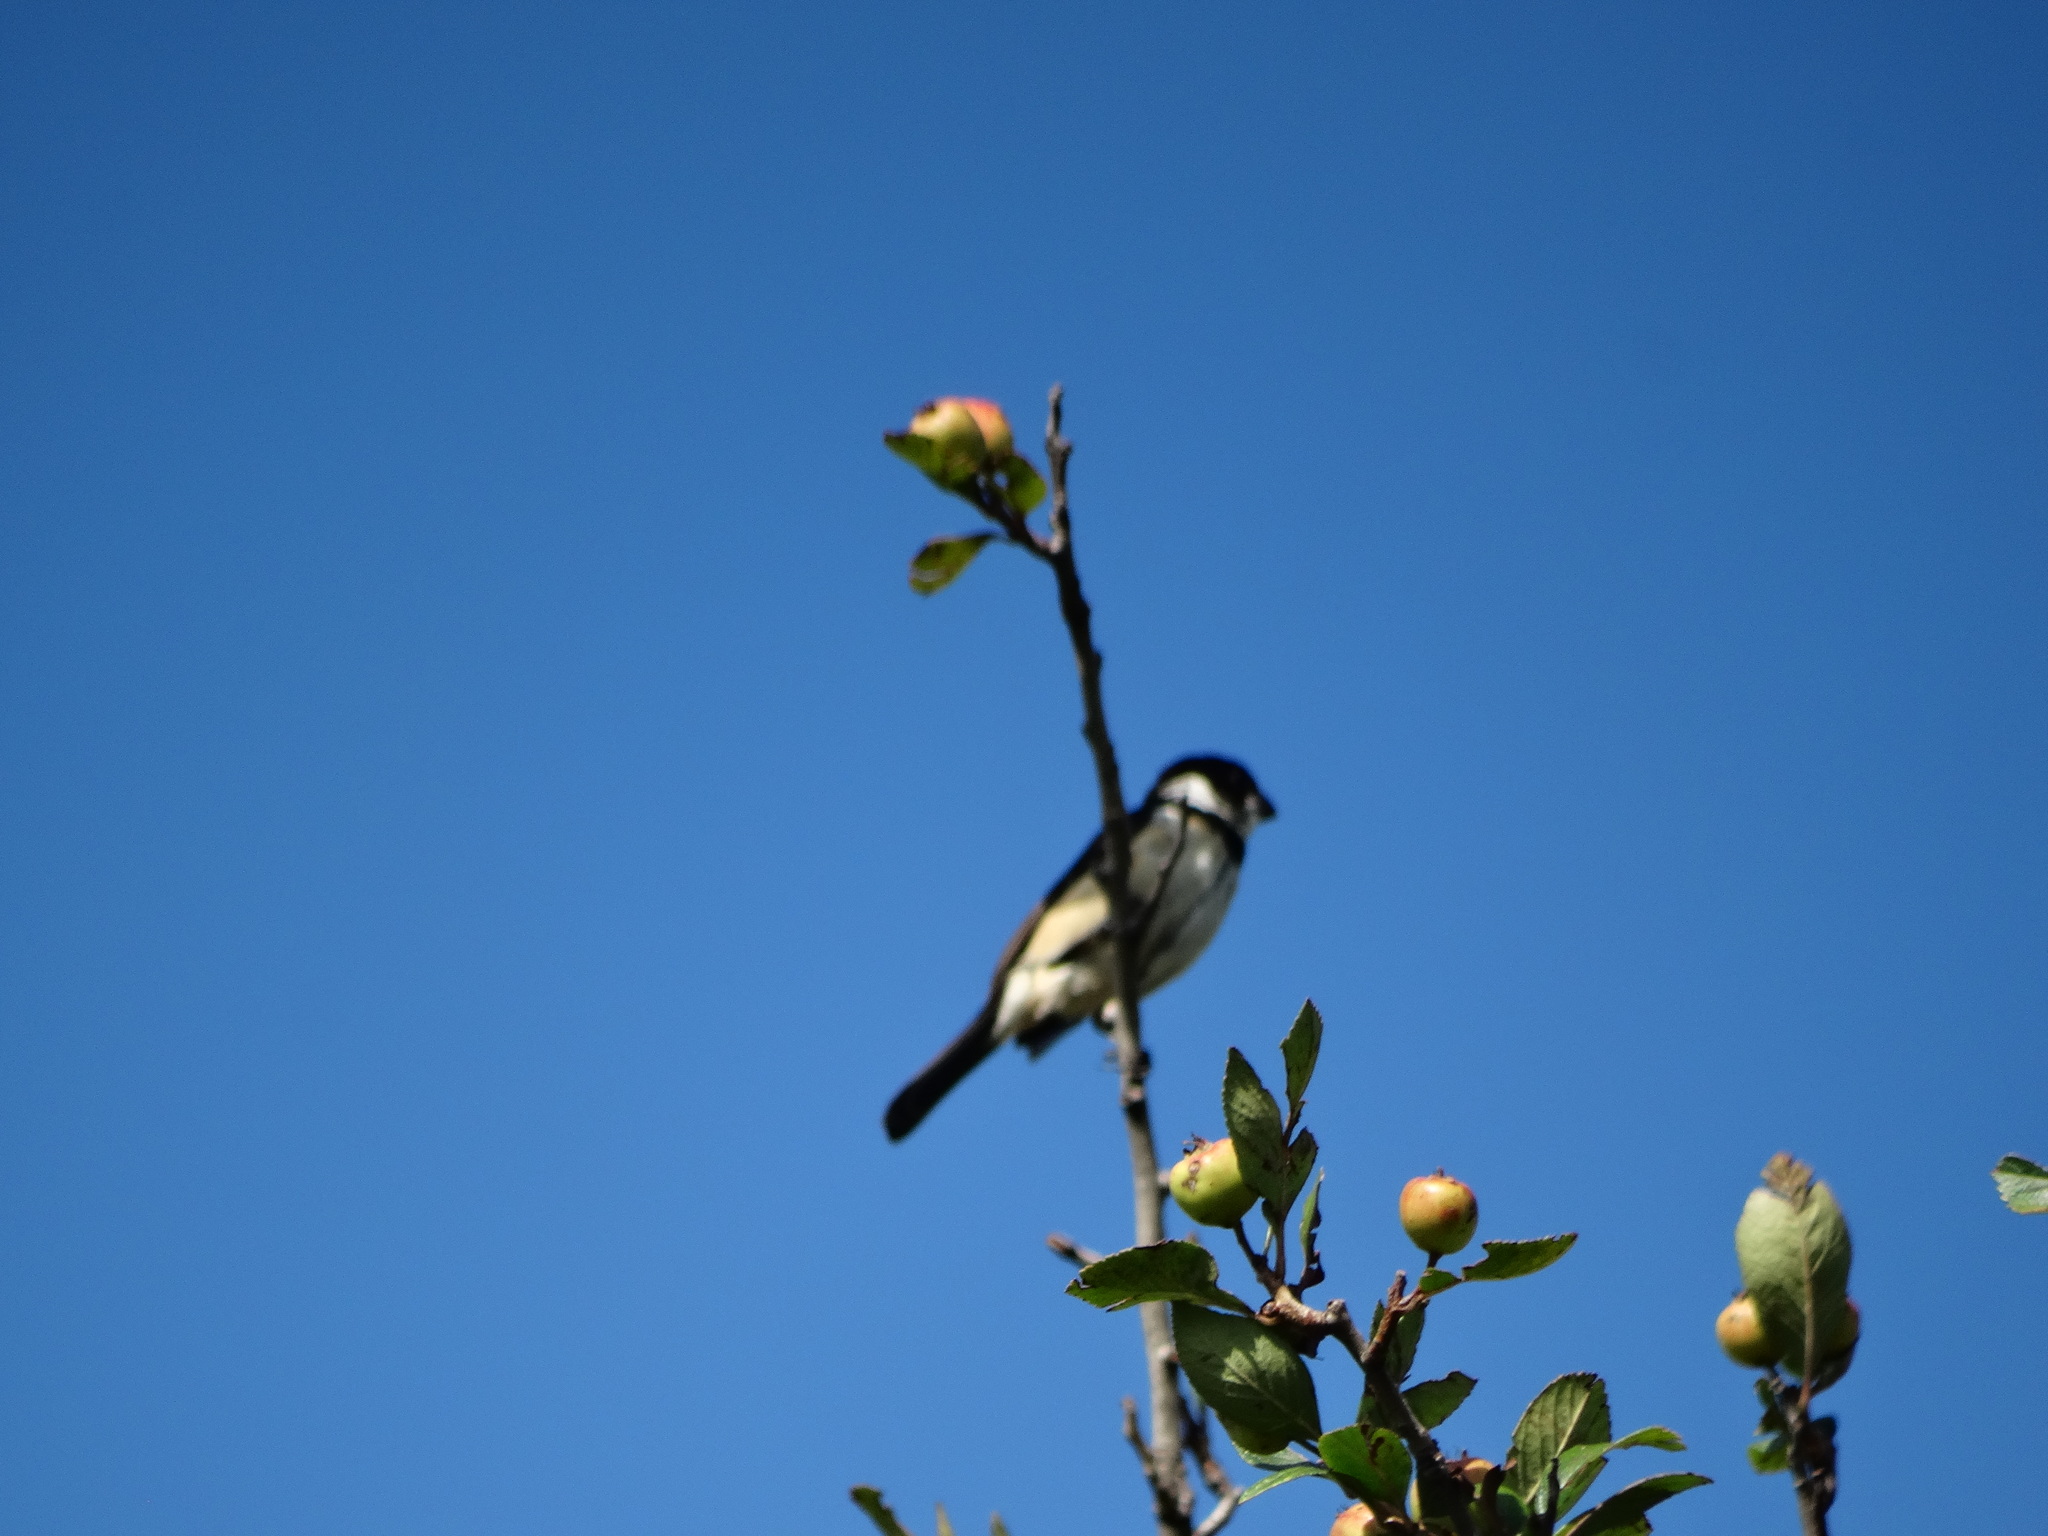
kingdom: Animalia
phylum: Chordata
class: Aves
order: Passeriformes
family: Thraupidae
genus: Sporophila
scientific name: Sporophila torqueola
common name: White-collared seedeater
